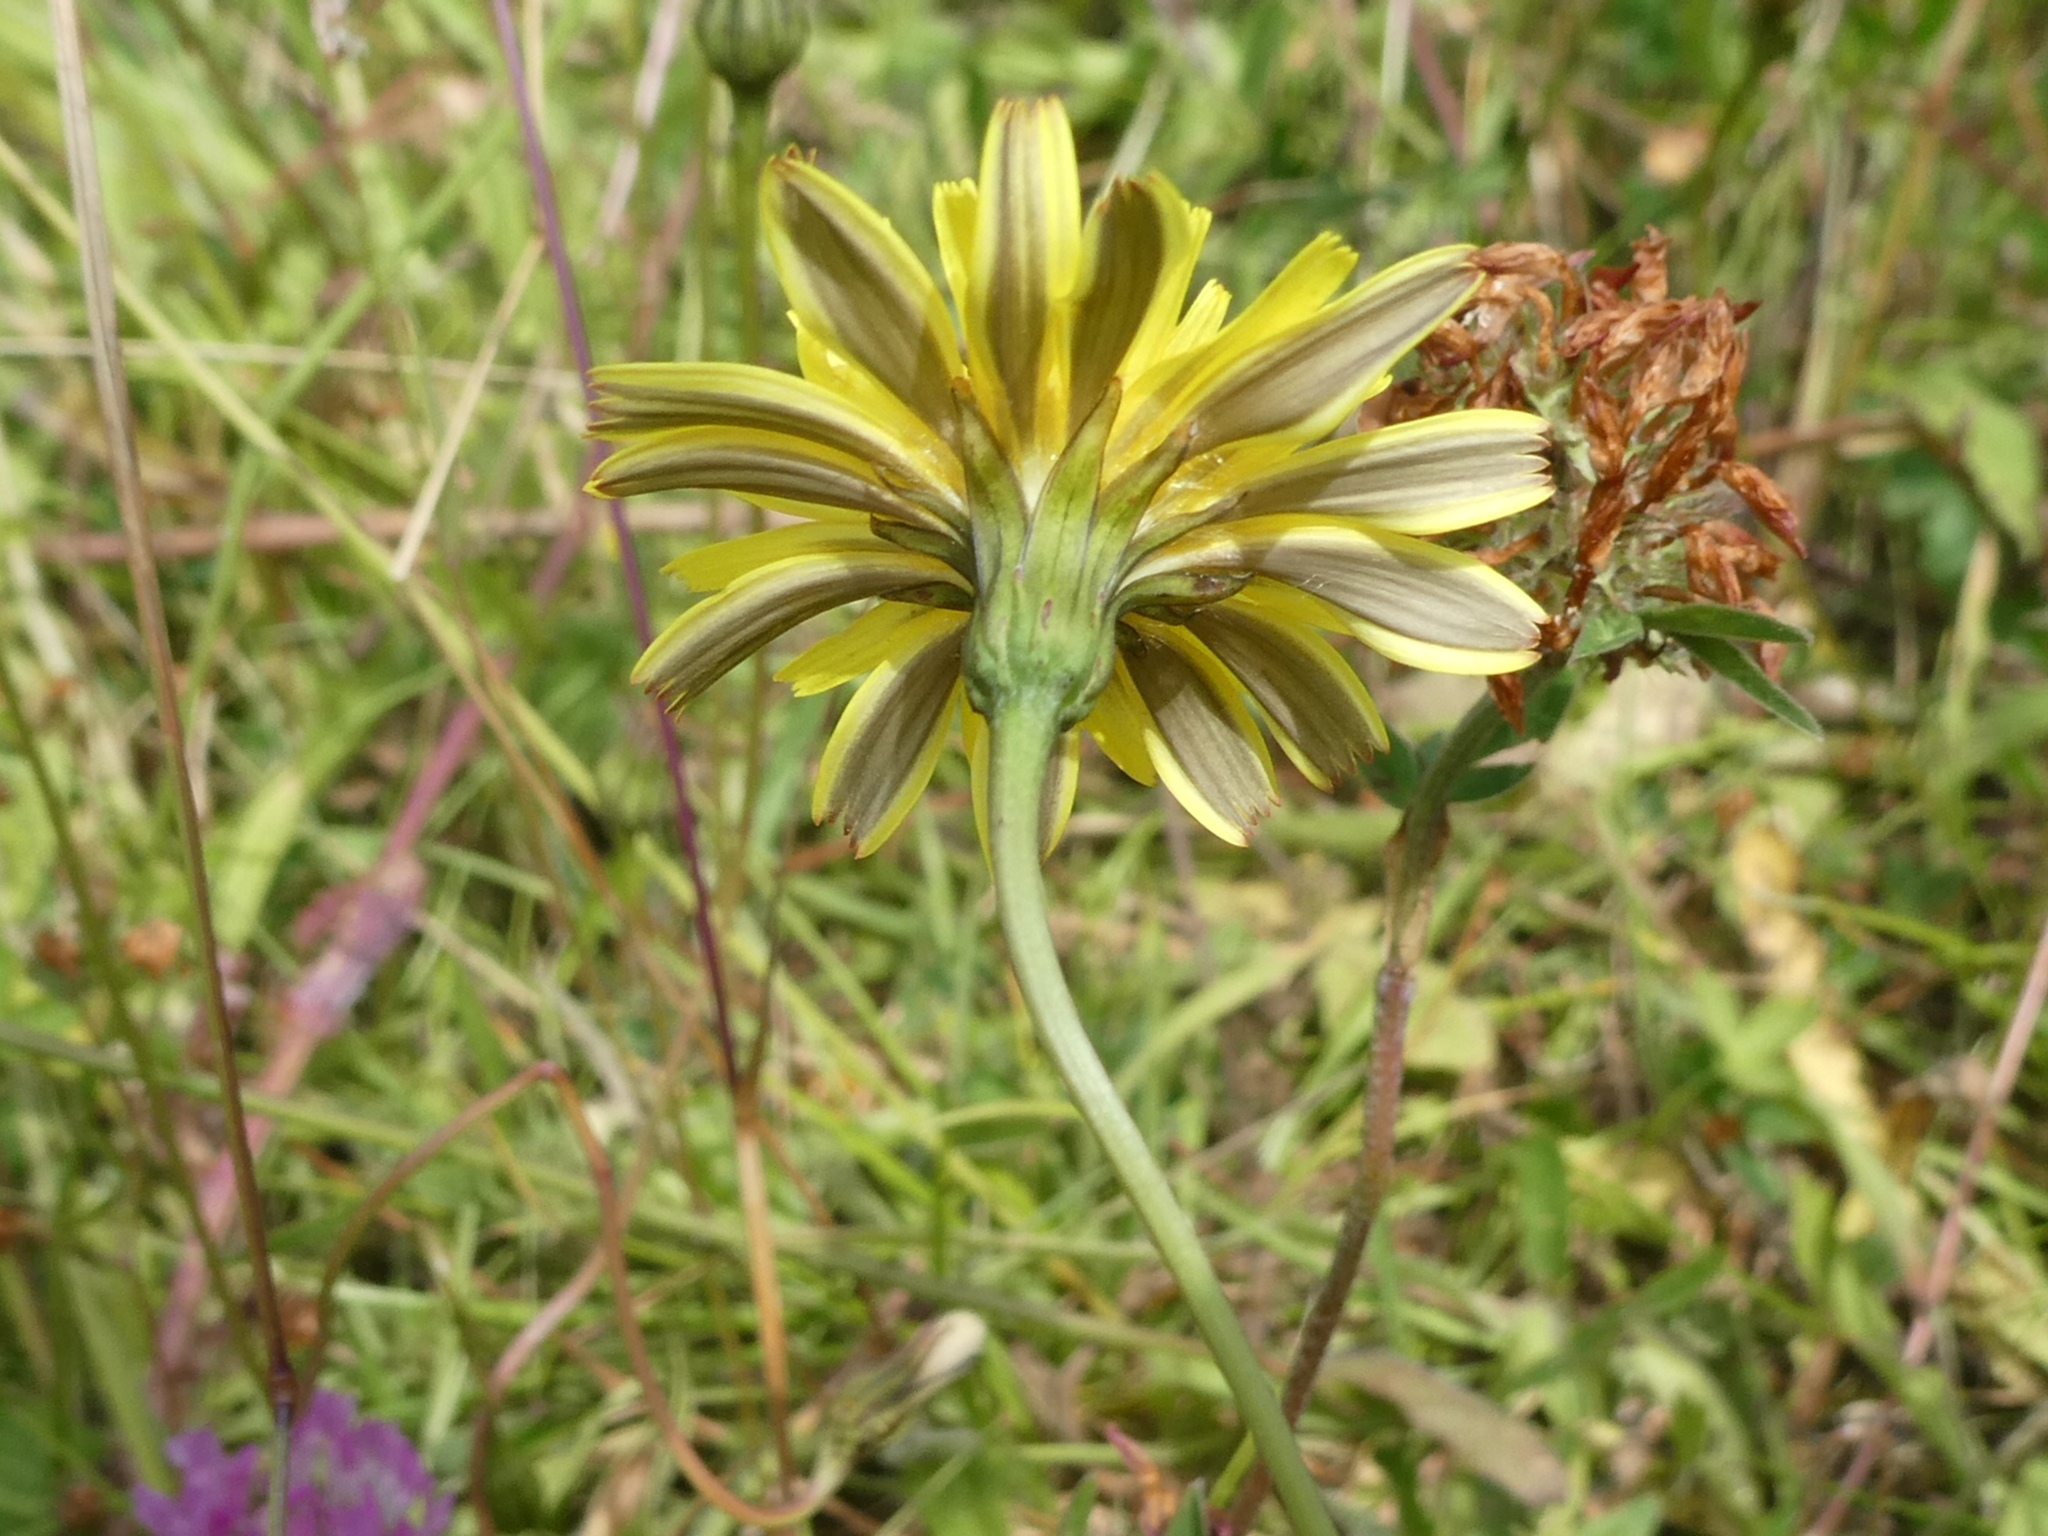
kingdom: Plantae
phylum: Tracheophyta
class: Magnoliopsida
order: Asterales
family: Asteraceae
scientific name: Asteraceae
